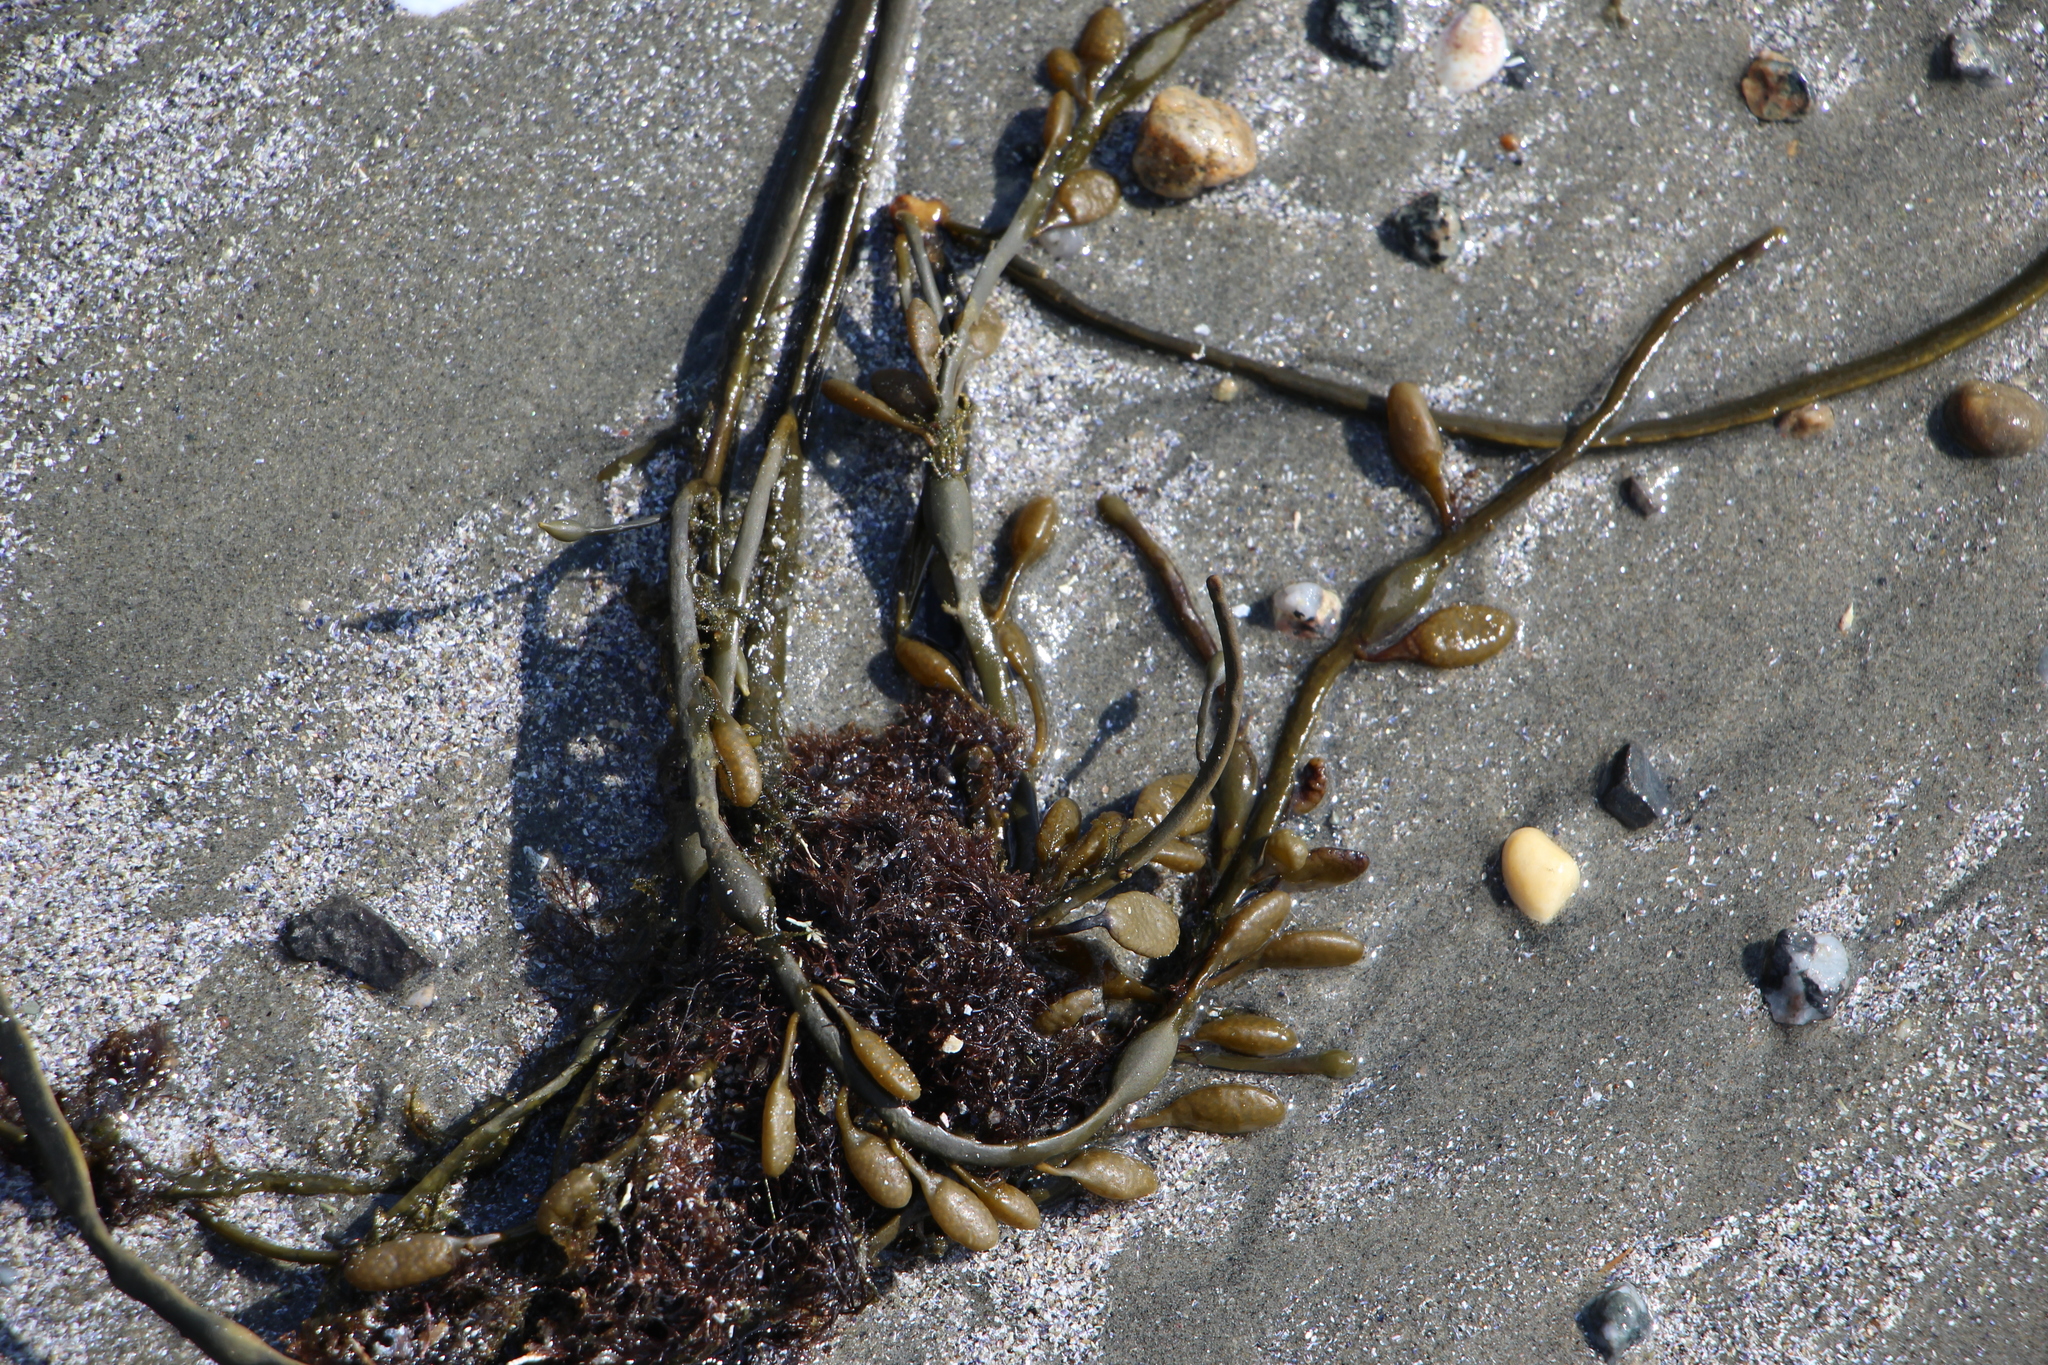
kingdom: Chromista
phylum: Ochrophyta
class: Phaeophyceae
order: Fucales
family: Fucaceae
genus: Ascophyllum
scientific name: Ascophyllum nodosum
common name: Knotted wrack
